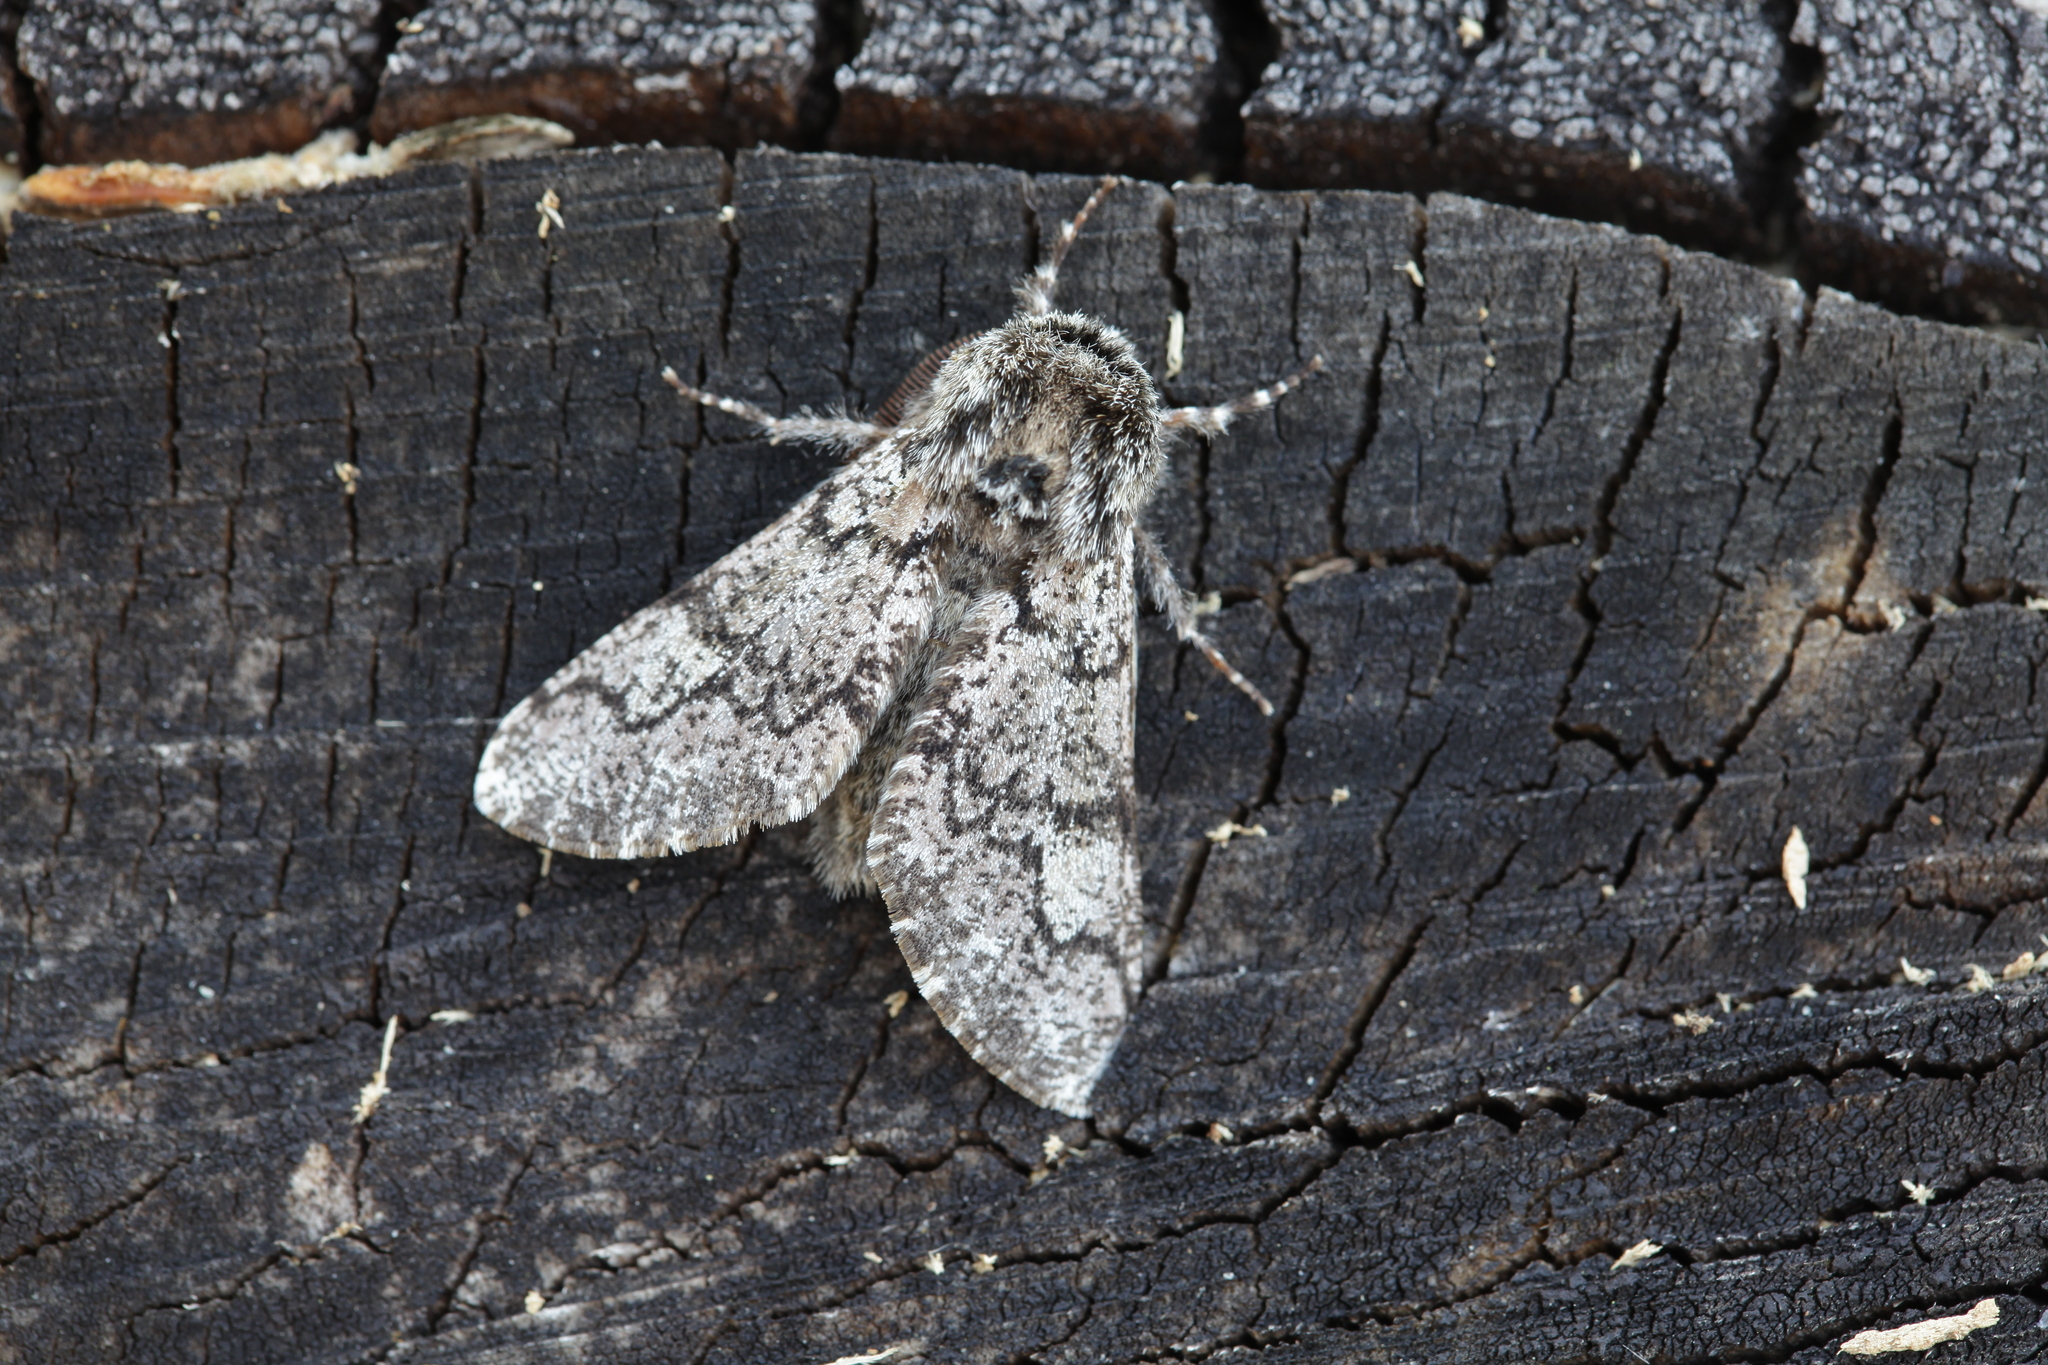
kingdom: Animalia
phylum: Arthropoda
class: Insecta
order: Lepidoptera
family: Geometridae
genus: Biston
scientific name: Biston strataria
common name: Oak beauty
